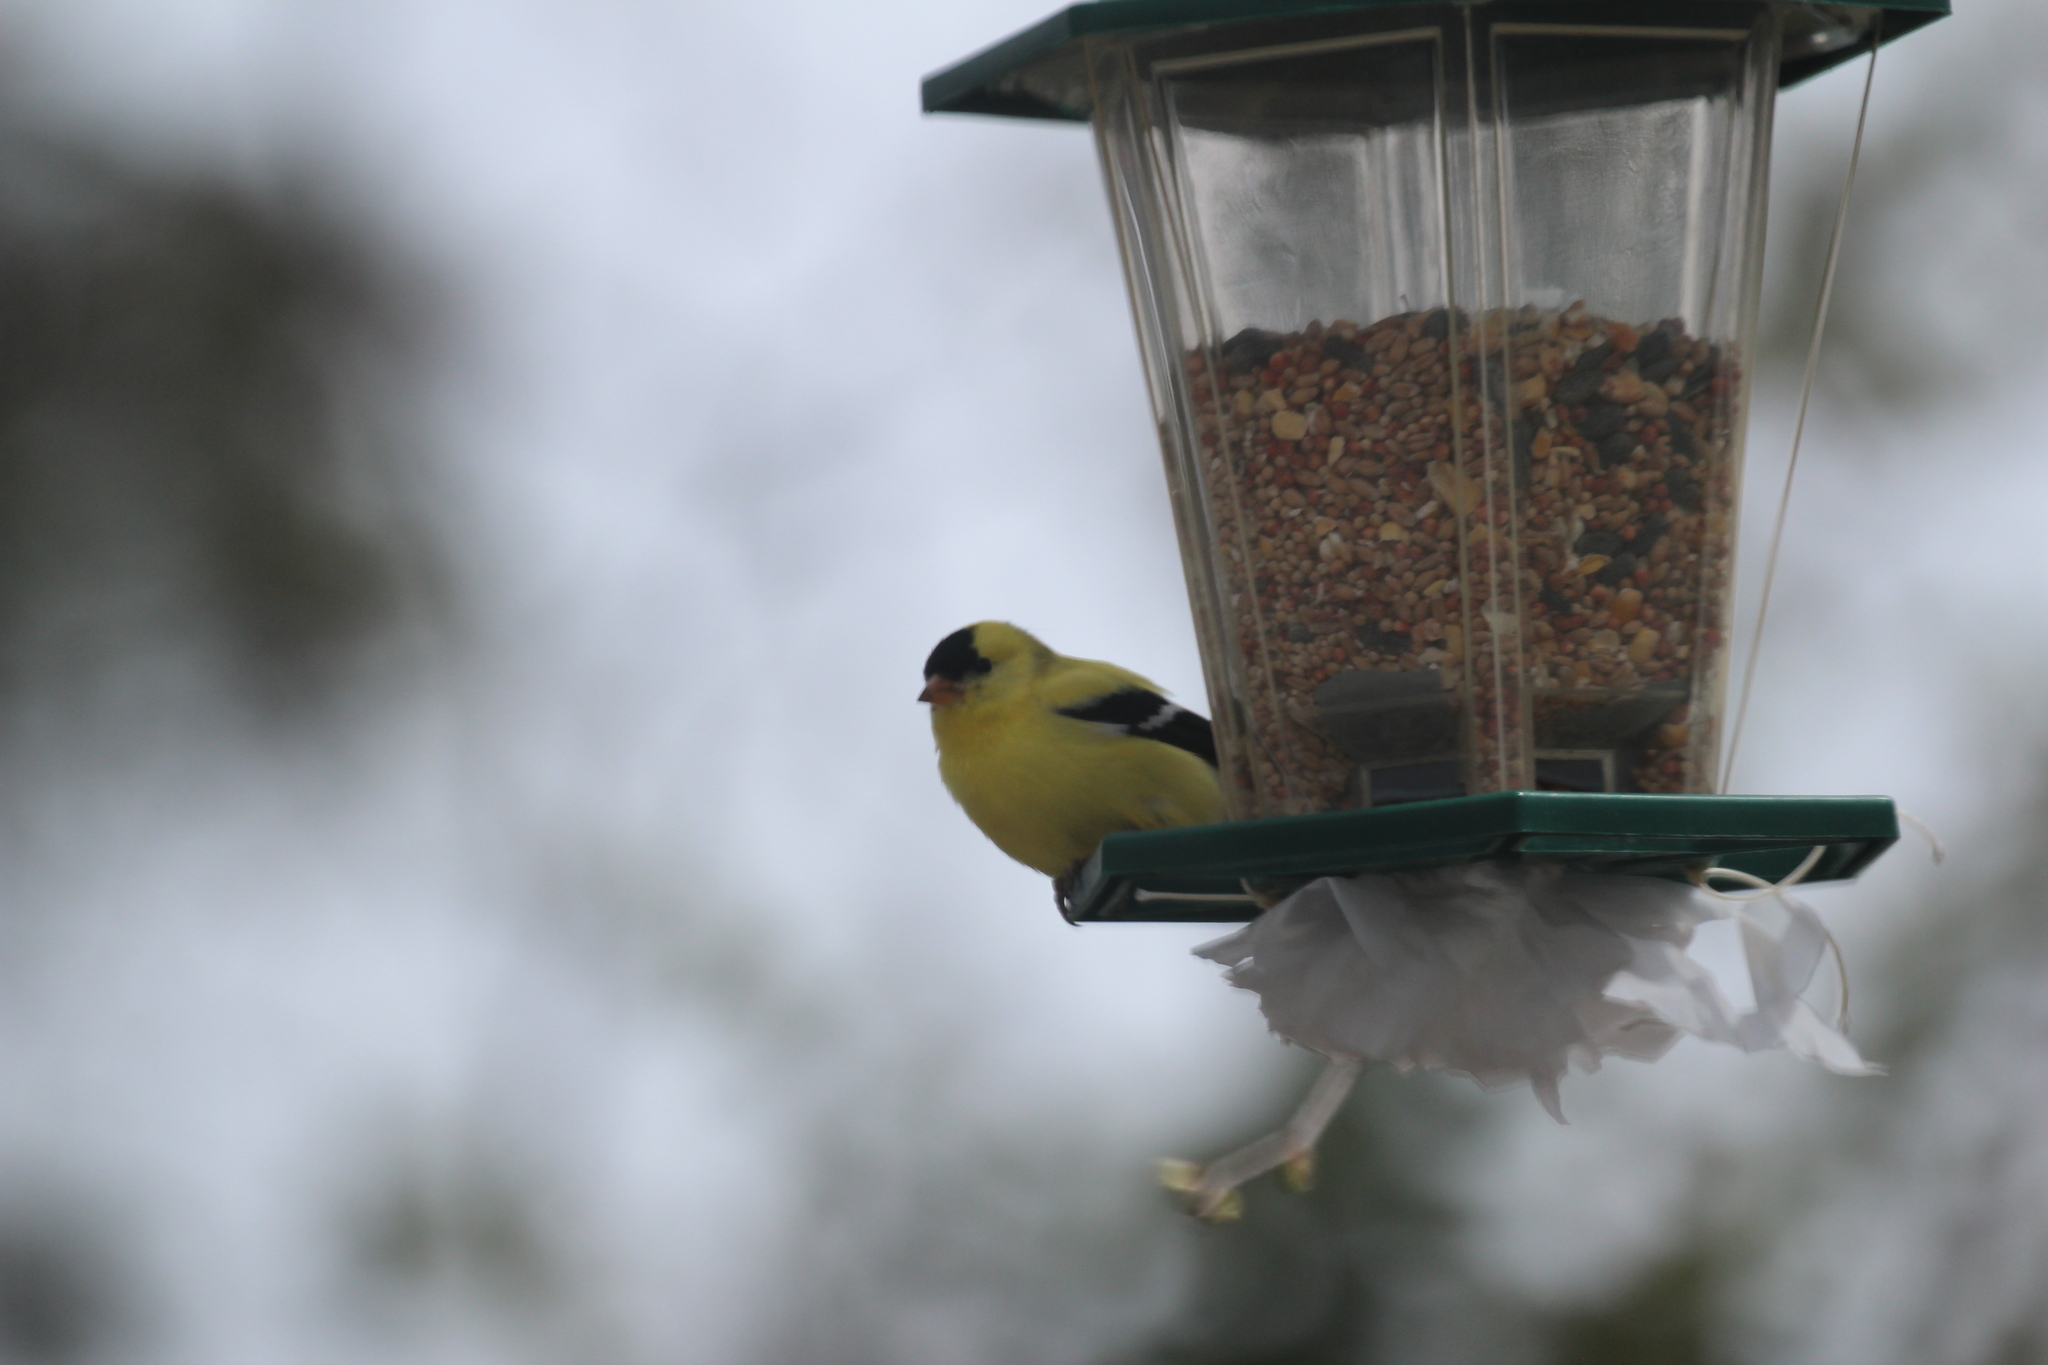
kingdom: Animalia
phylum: Chordata
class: Aves
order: Passeriformes
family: Fringillidae
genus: Spinus
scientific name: Spinus tristis
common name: American goldfinch
